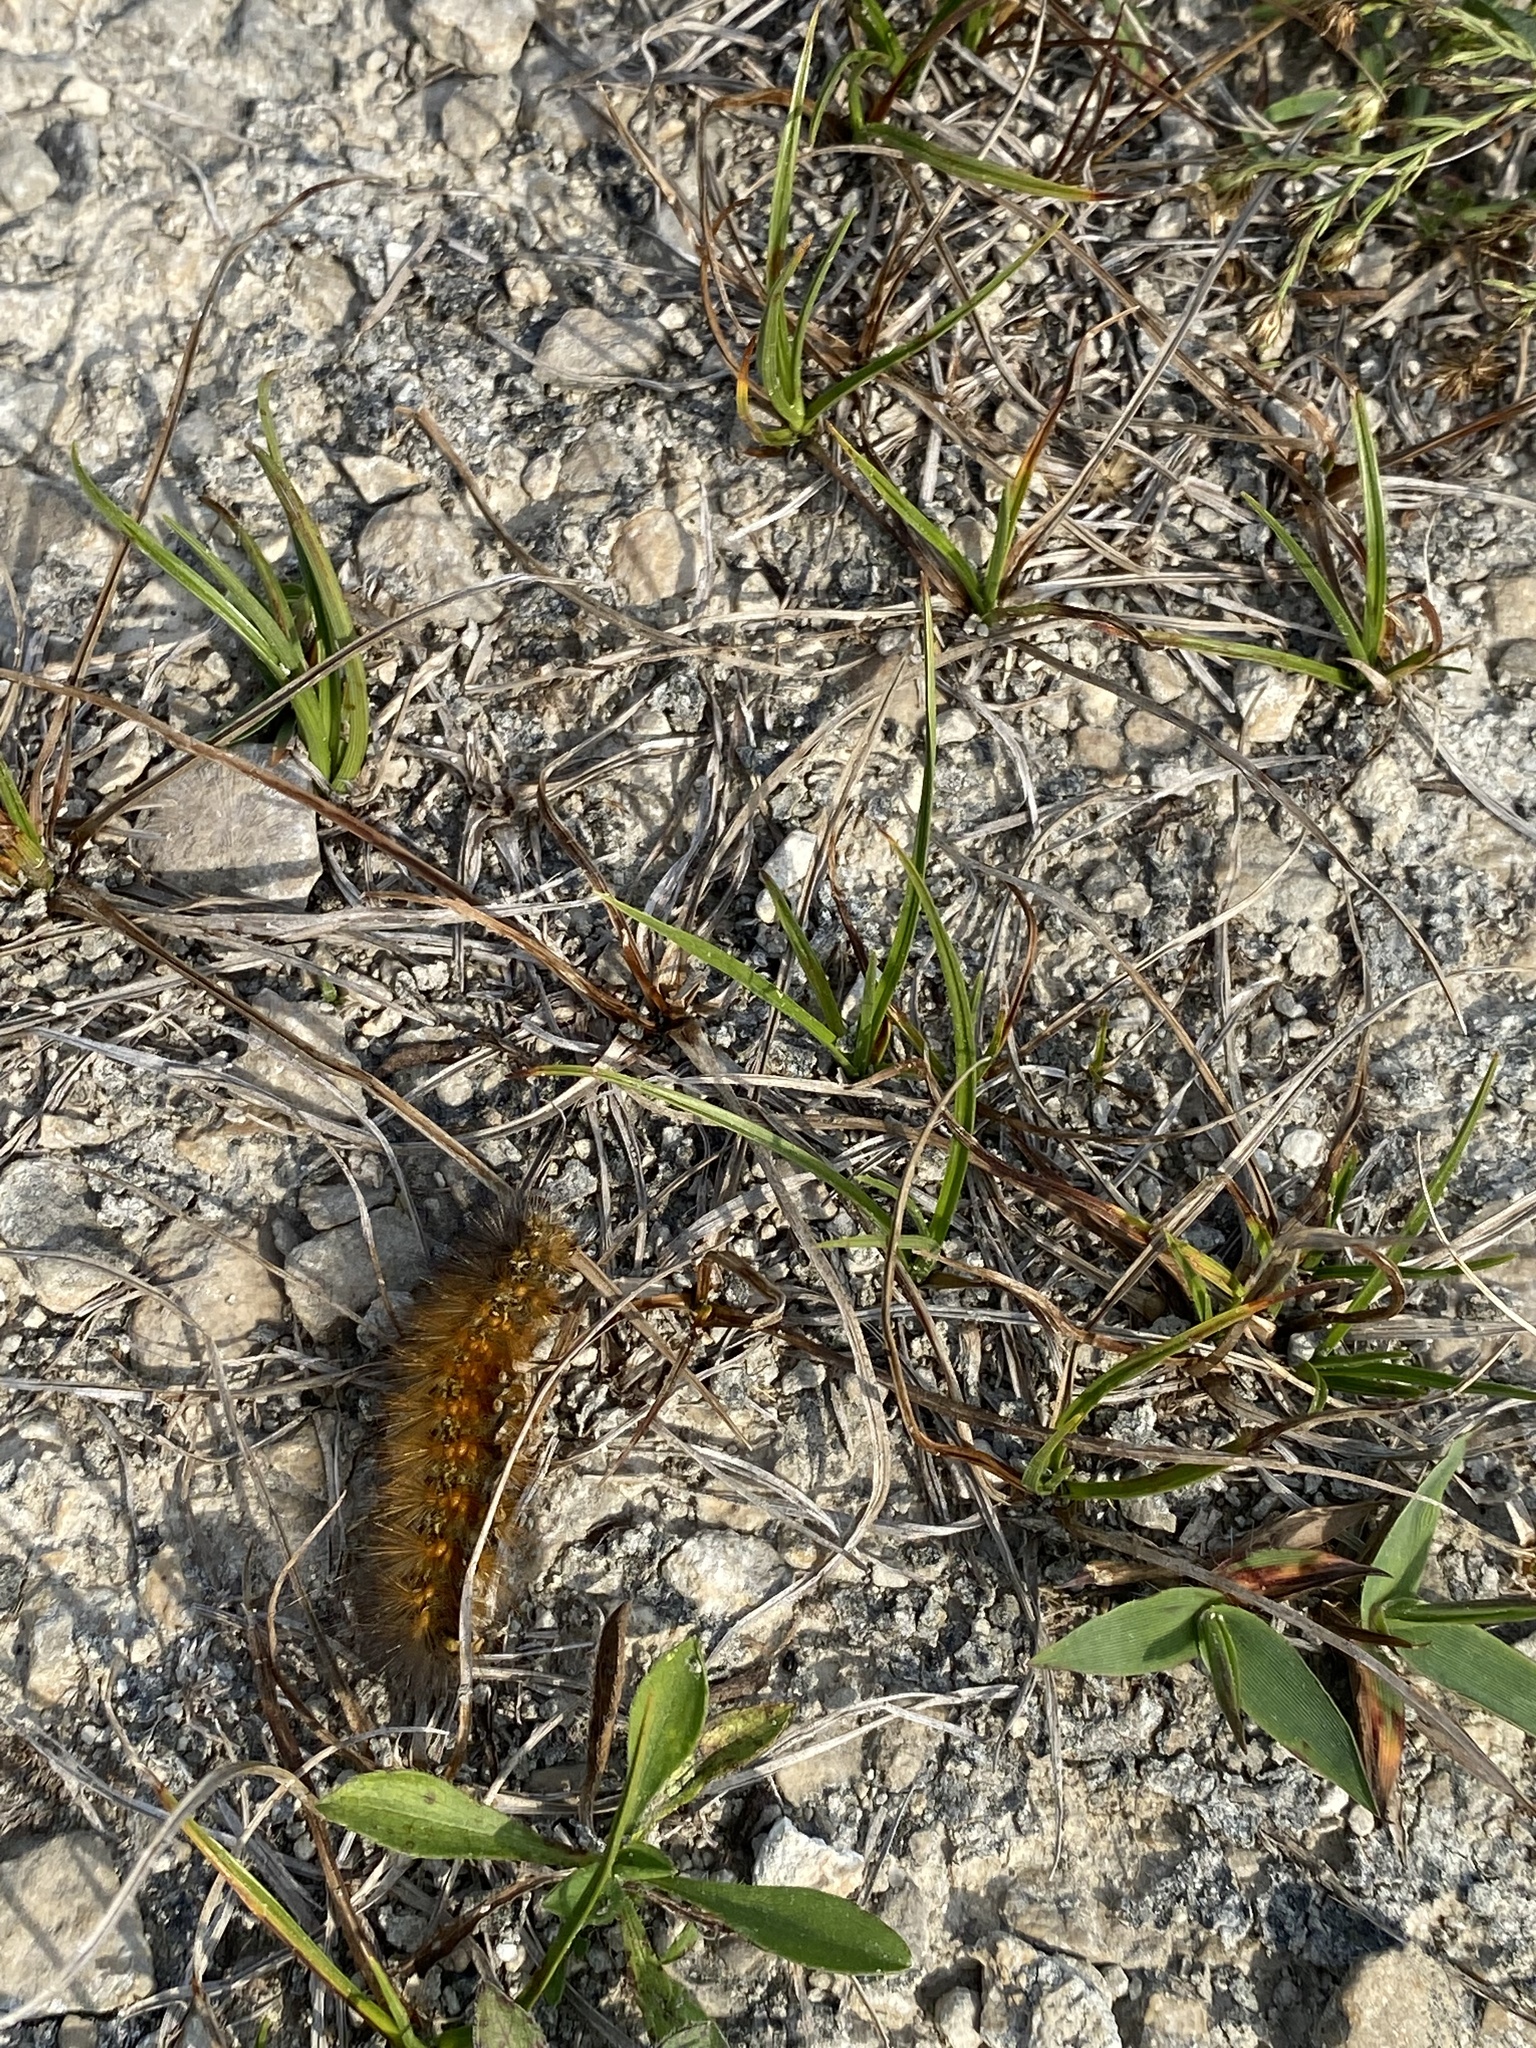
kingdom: Animalia
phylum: Arthropoda
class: Insecta
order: Lepidoptera
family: Erebidae
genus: Estigmene
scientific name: Estigmene acrea
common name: Salt marsh moth
